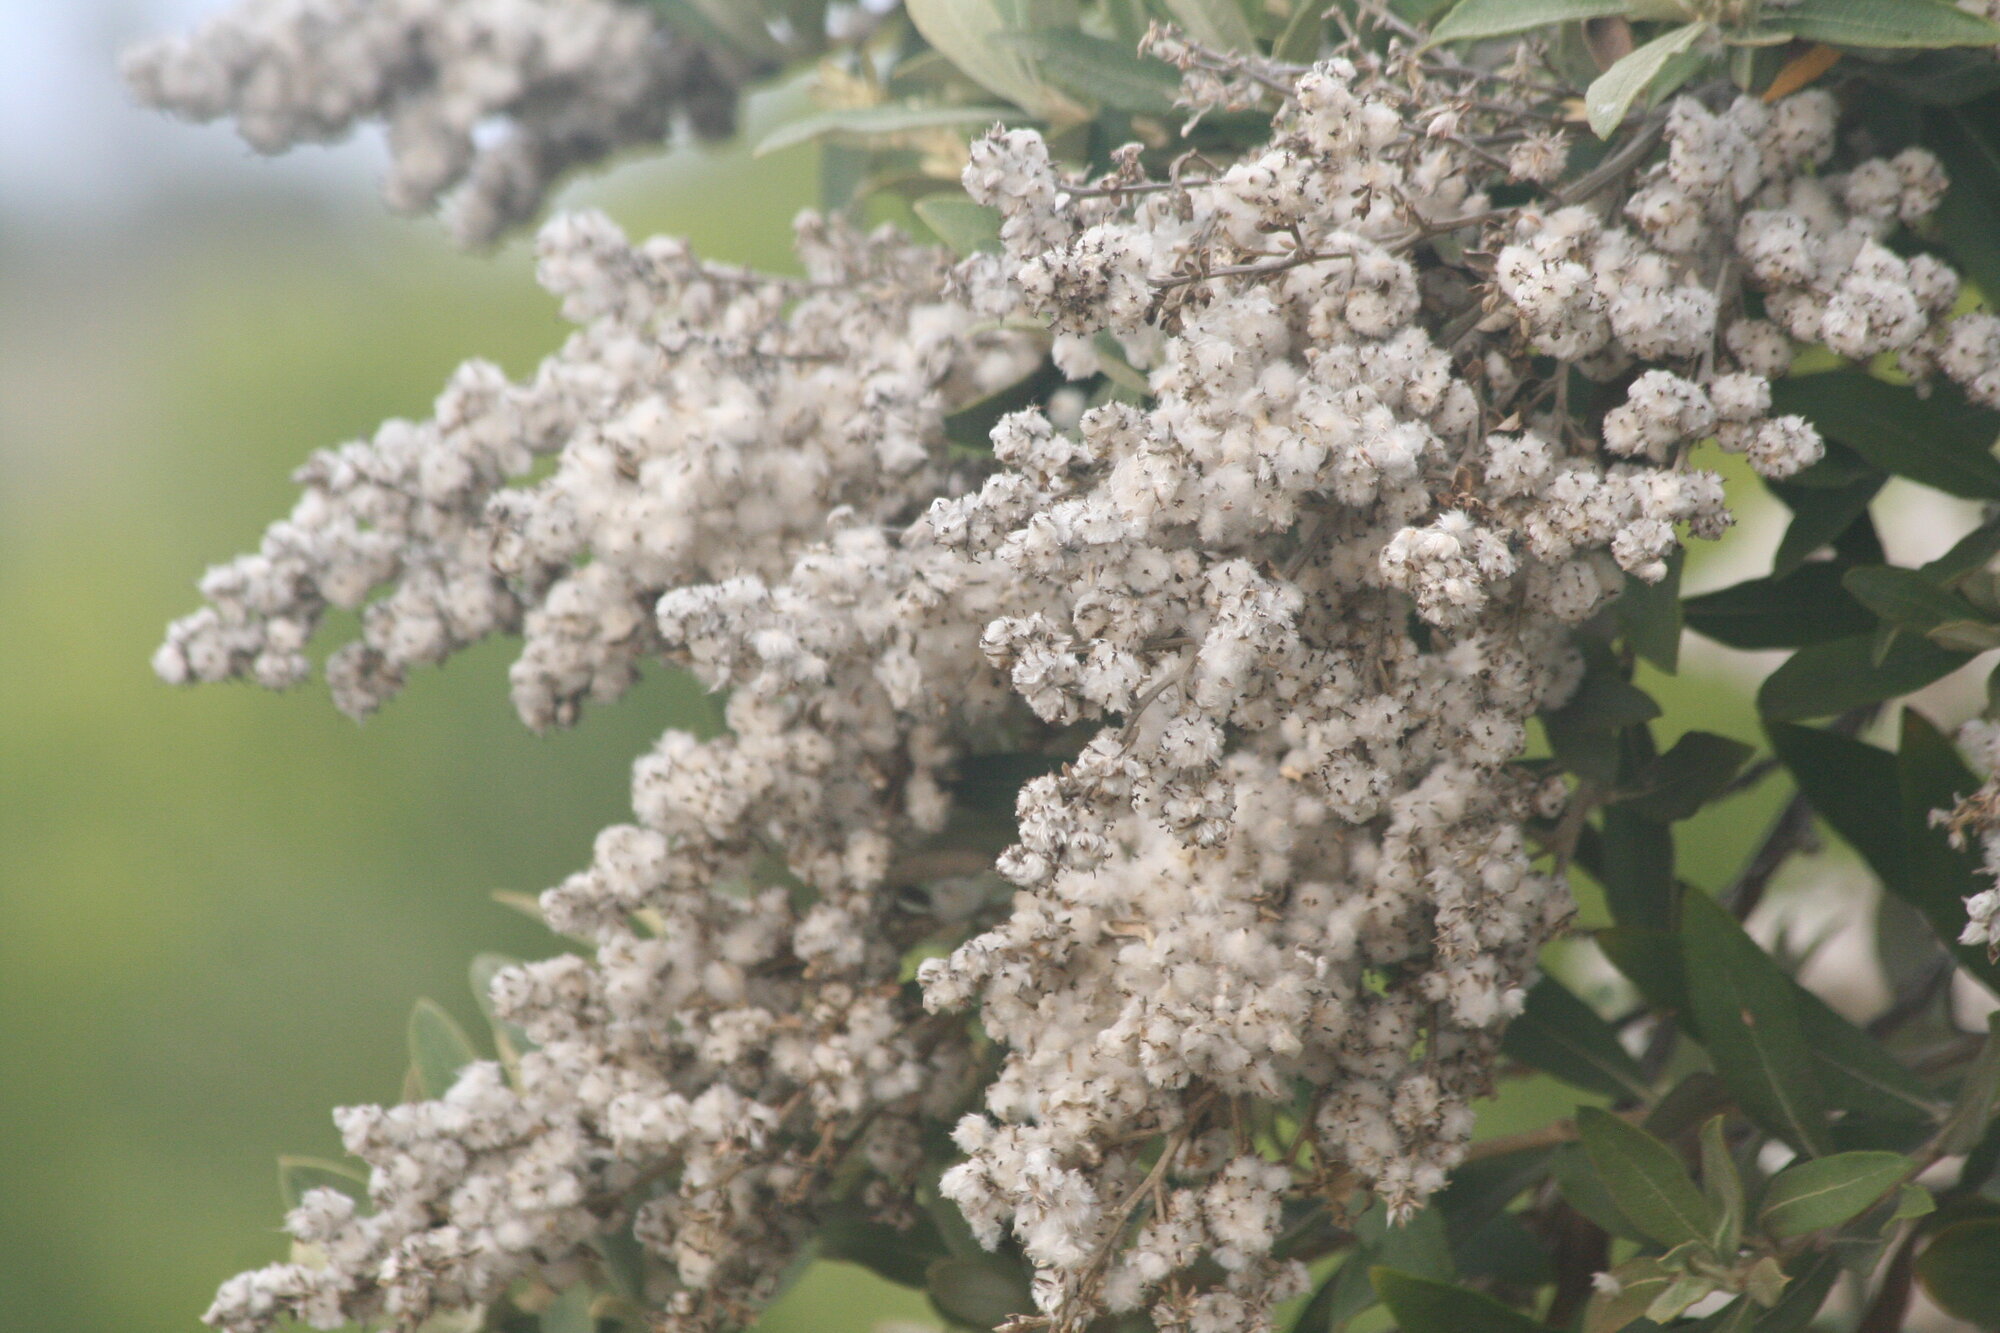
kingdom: Plantae
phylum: Tracheophyta
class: Magnoliopsida
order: Asterales
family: Asteraceae
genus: Tarchonanthus
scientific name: Tarchonanthus littoralis
